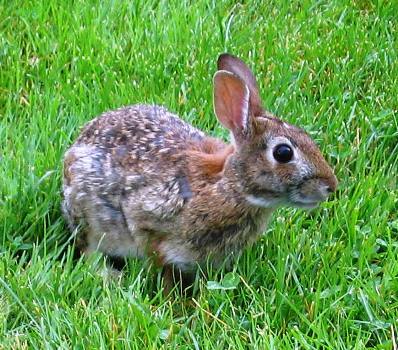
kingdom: Animalia
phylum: Chordata
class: Mammalia
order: Lagomorpha
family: Leporidae
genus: Sylvilagus
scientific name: Sylvilagus floridanus
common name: Eastern cottontail
